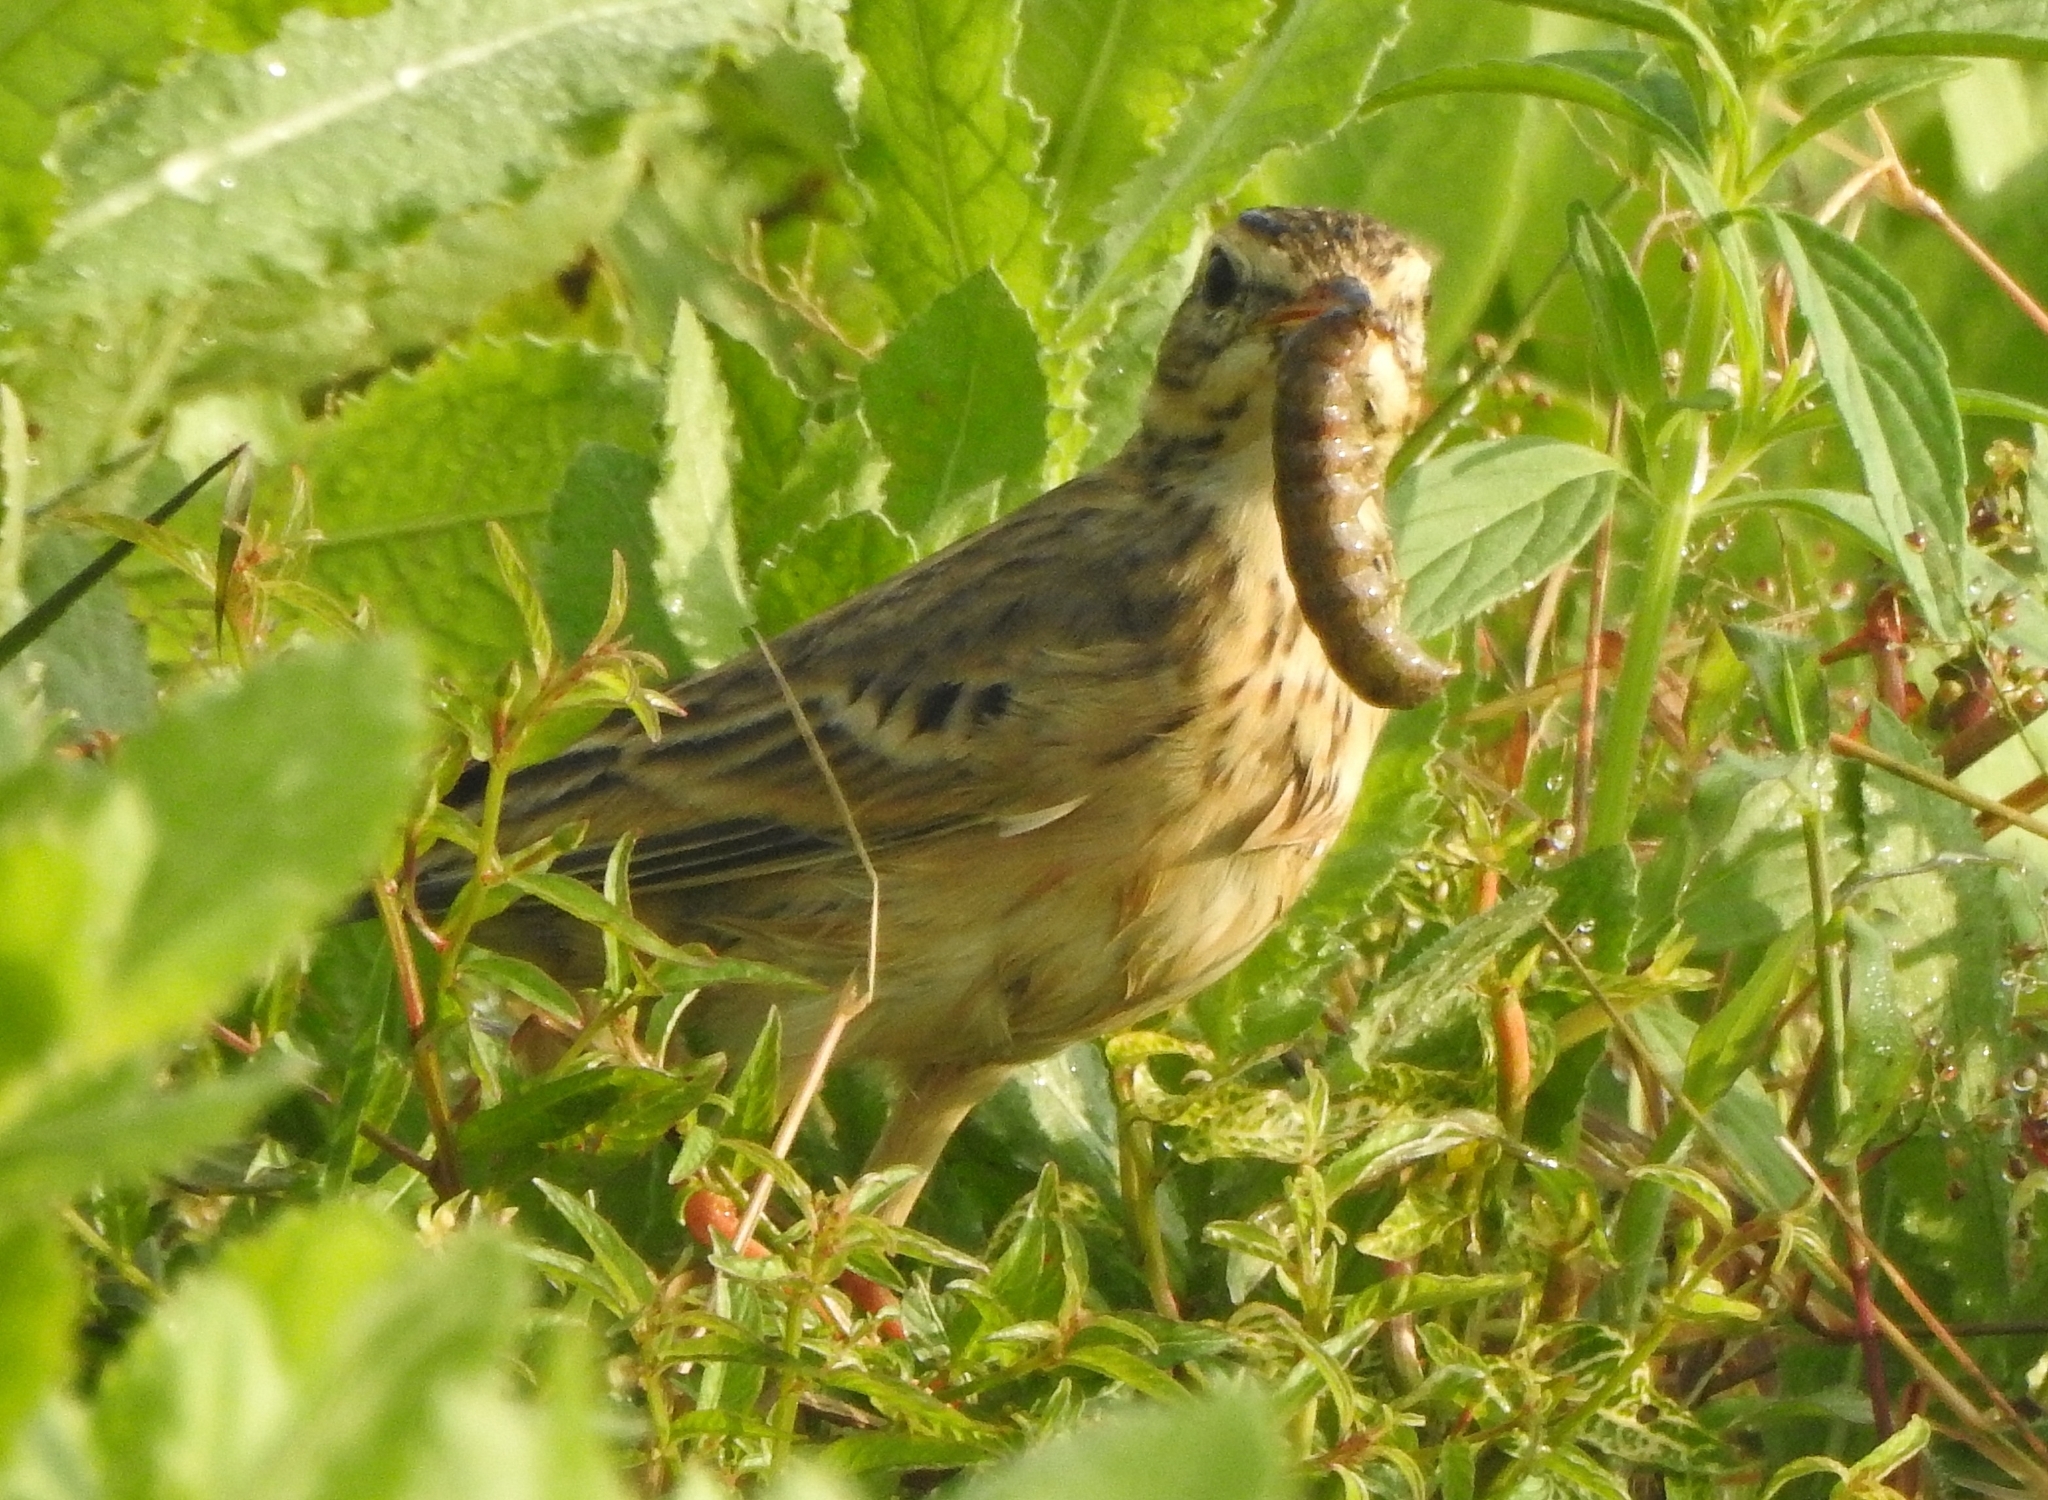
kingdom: Animalia
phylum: Chordata
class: Aves
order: Passeriformes
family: Motacillidae
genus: Anthus
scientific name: Anthus rufulus
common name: Paddyfield pipit
